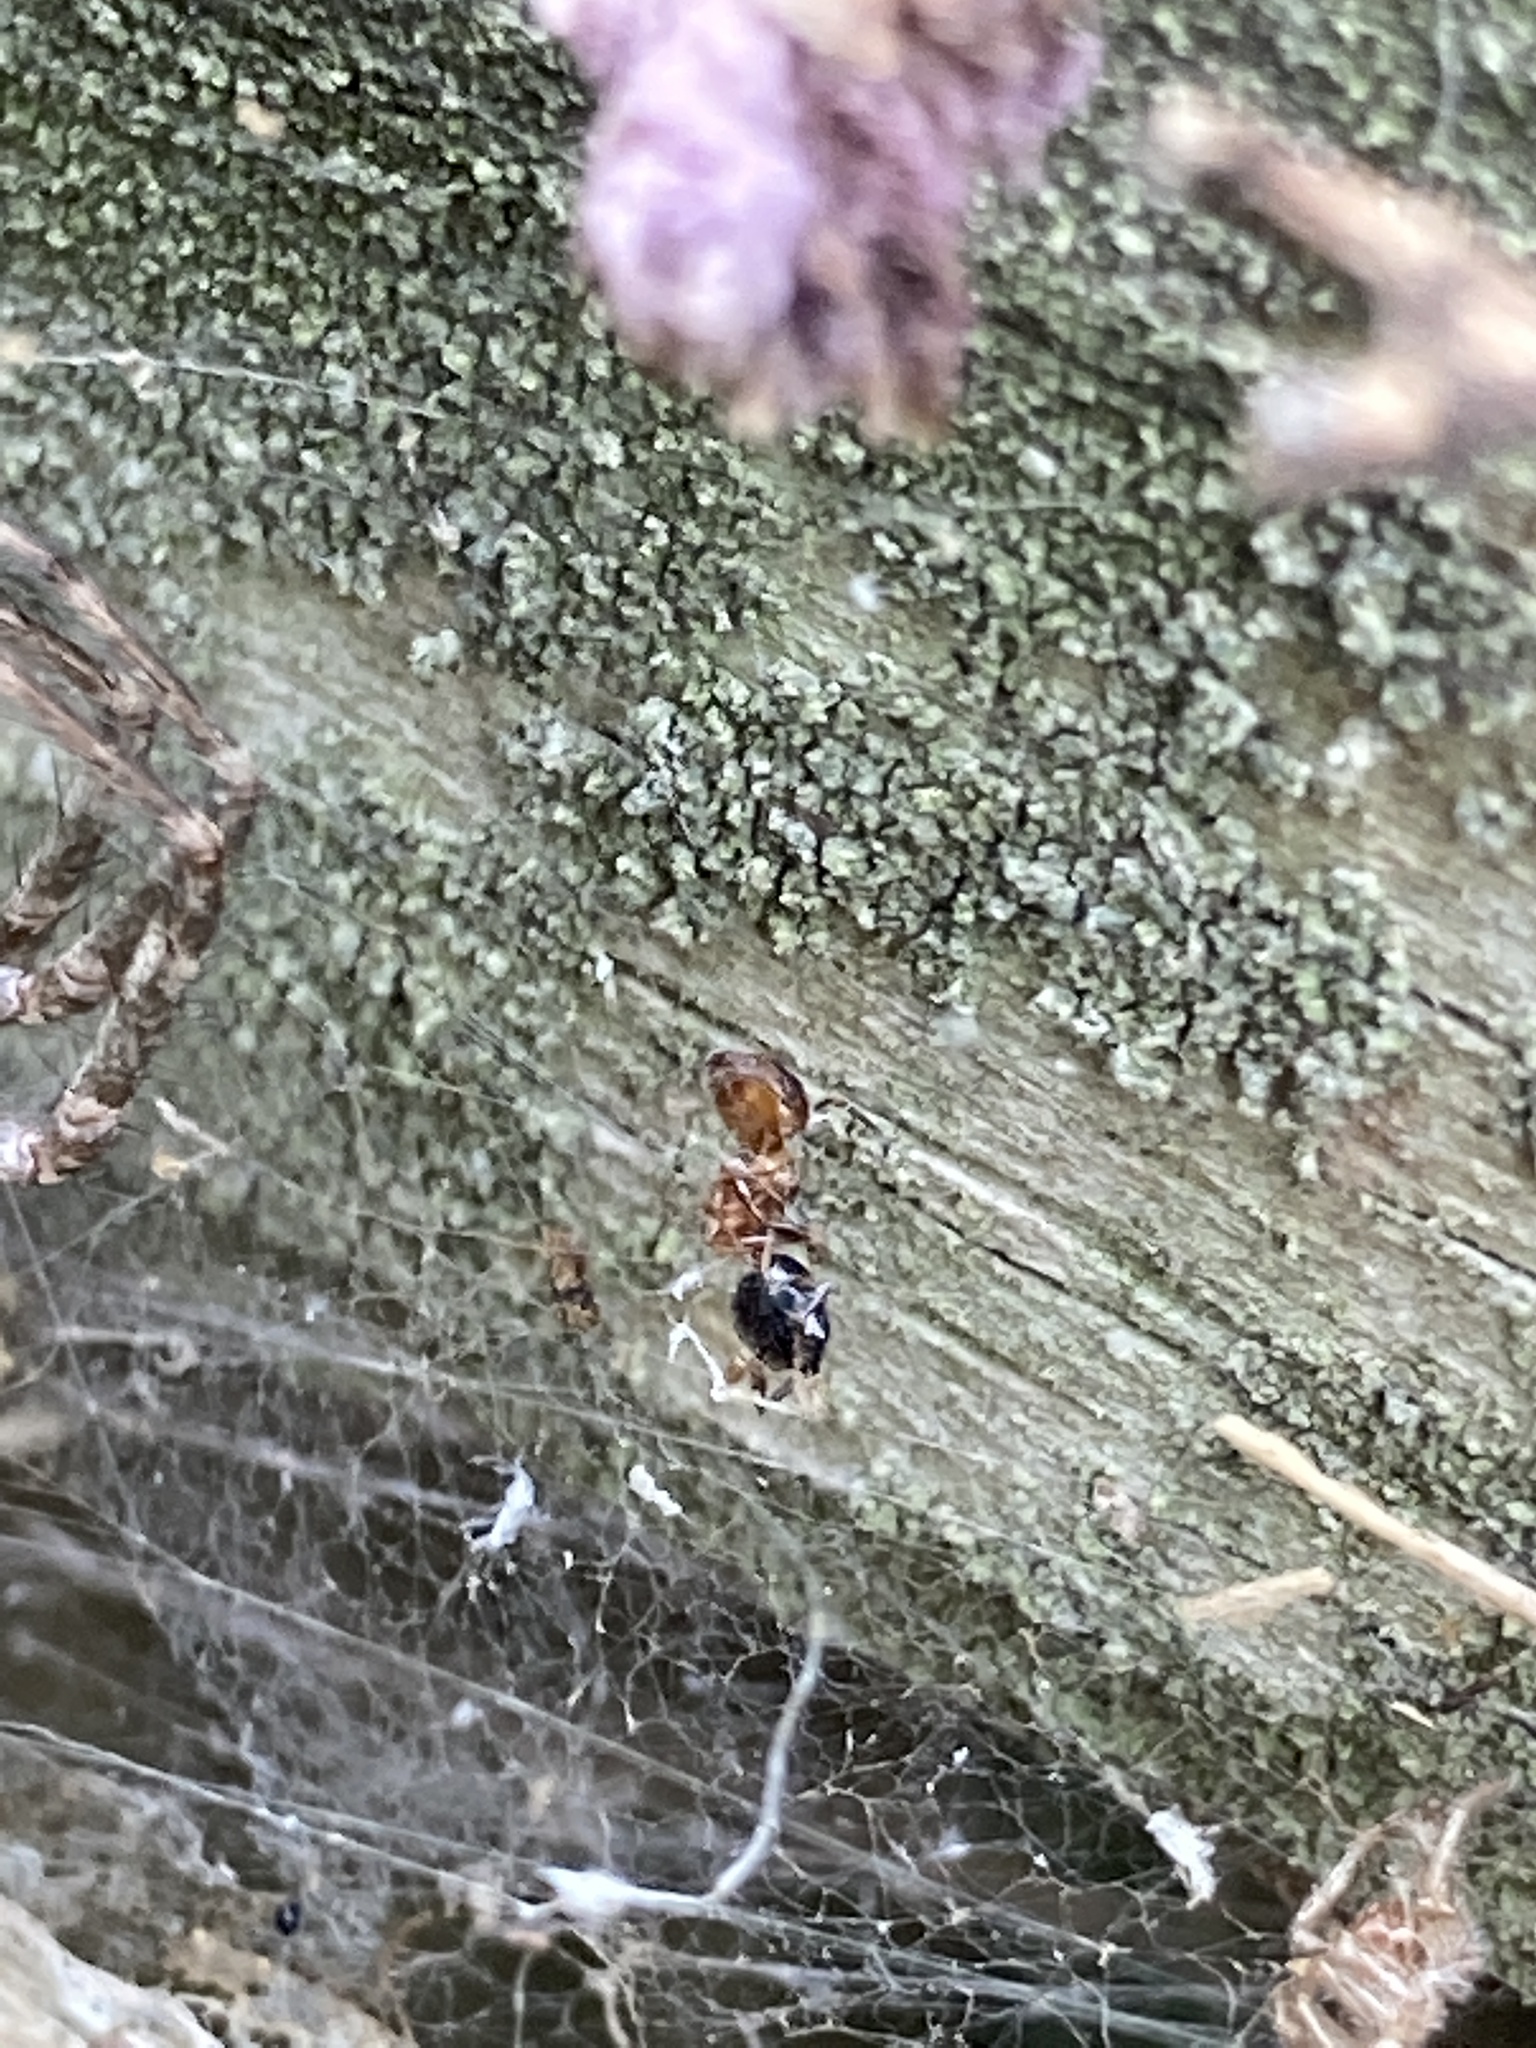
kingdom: Animalia
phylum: Arthropoda
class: Insecta
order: Hymenoptera
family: Formicidae
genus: Crematogaster
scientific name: Crematogaster laeviuscula
